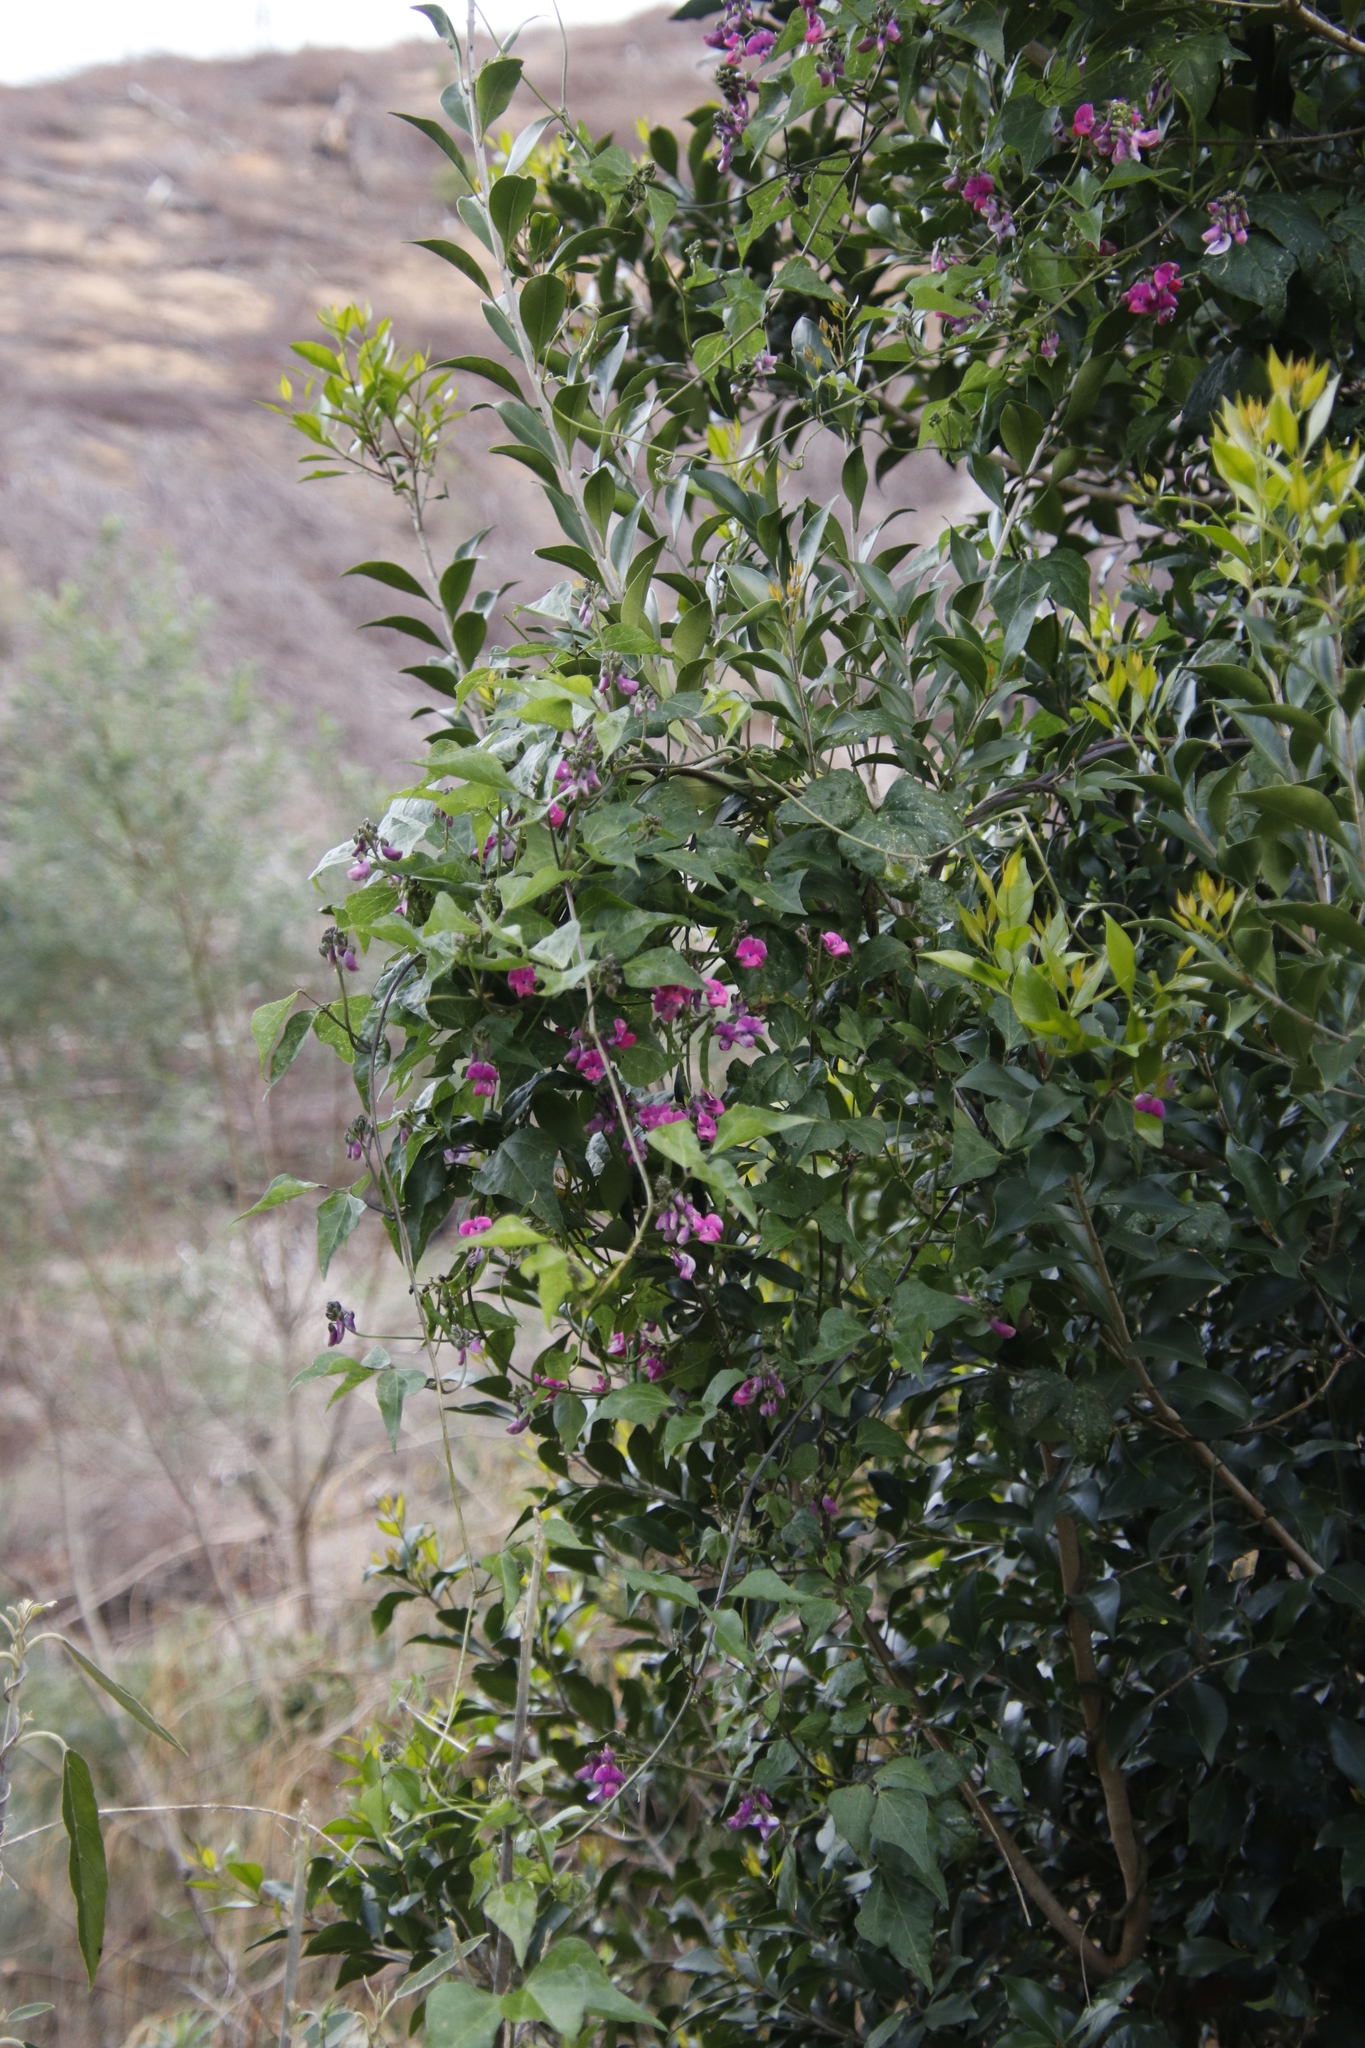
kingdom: Plantae
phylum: Tracheophyta
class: Magnoliopsida
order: Fabales
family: Fabaceae
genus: Dipogon
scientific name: Dipogon lignosus
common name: Okie bean
